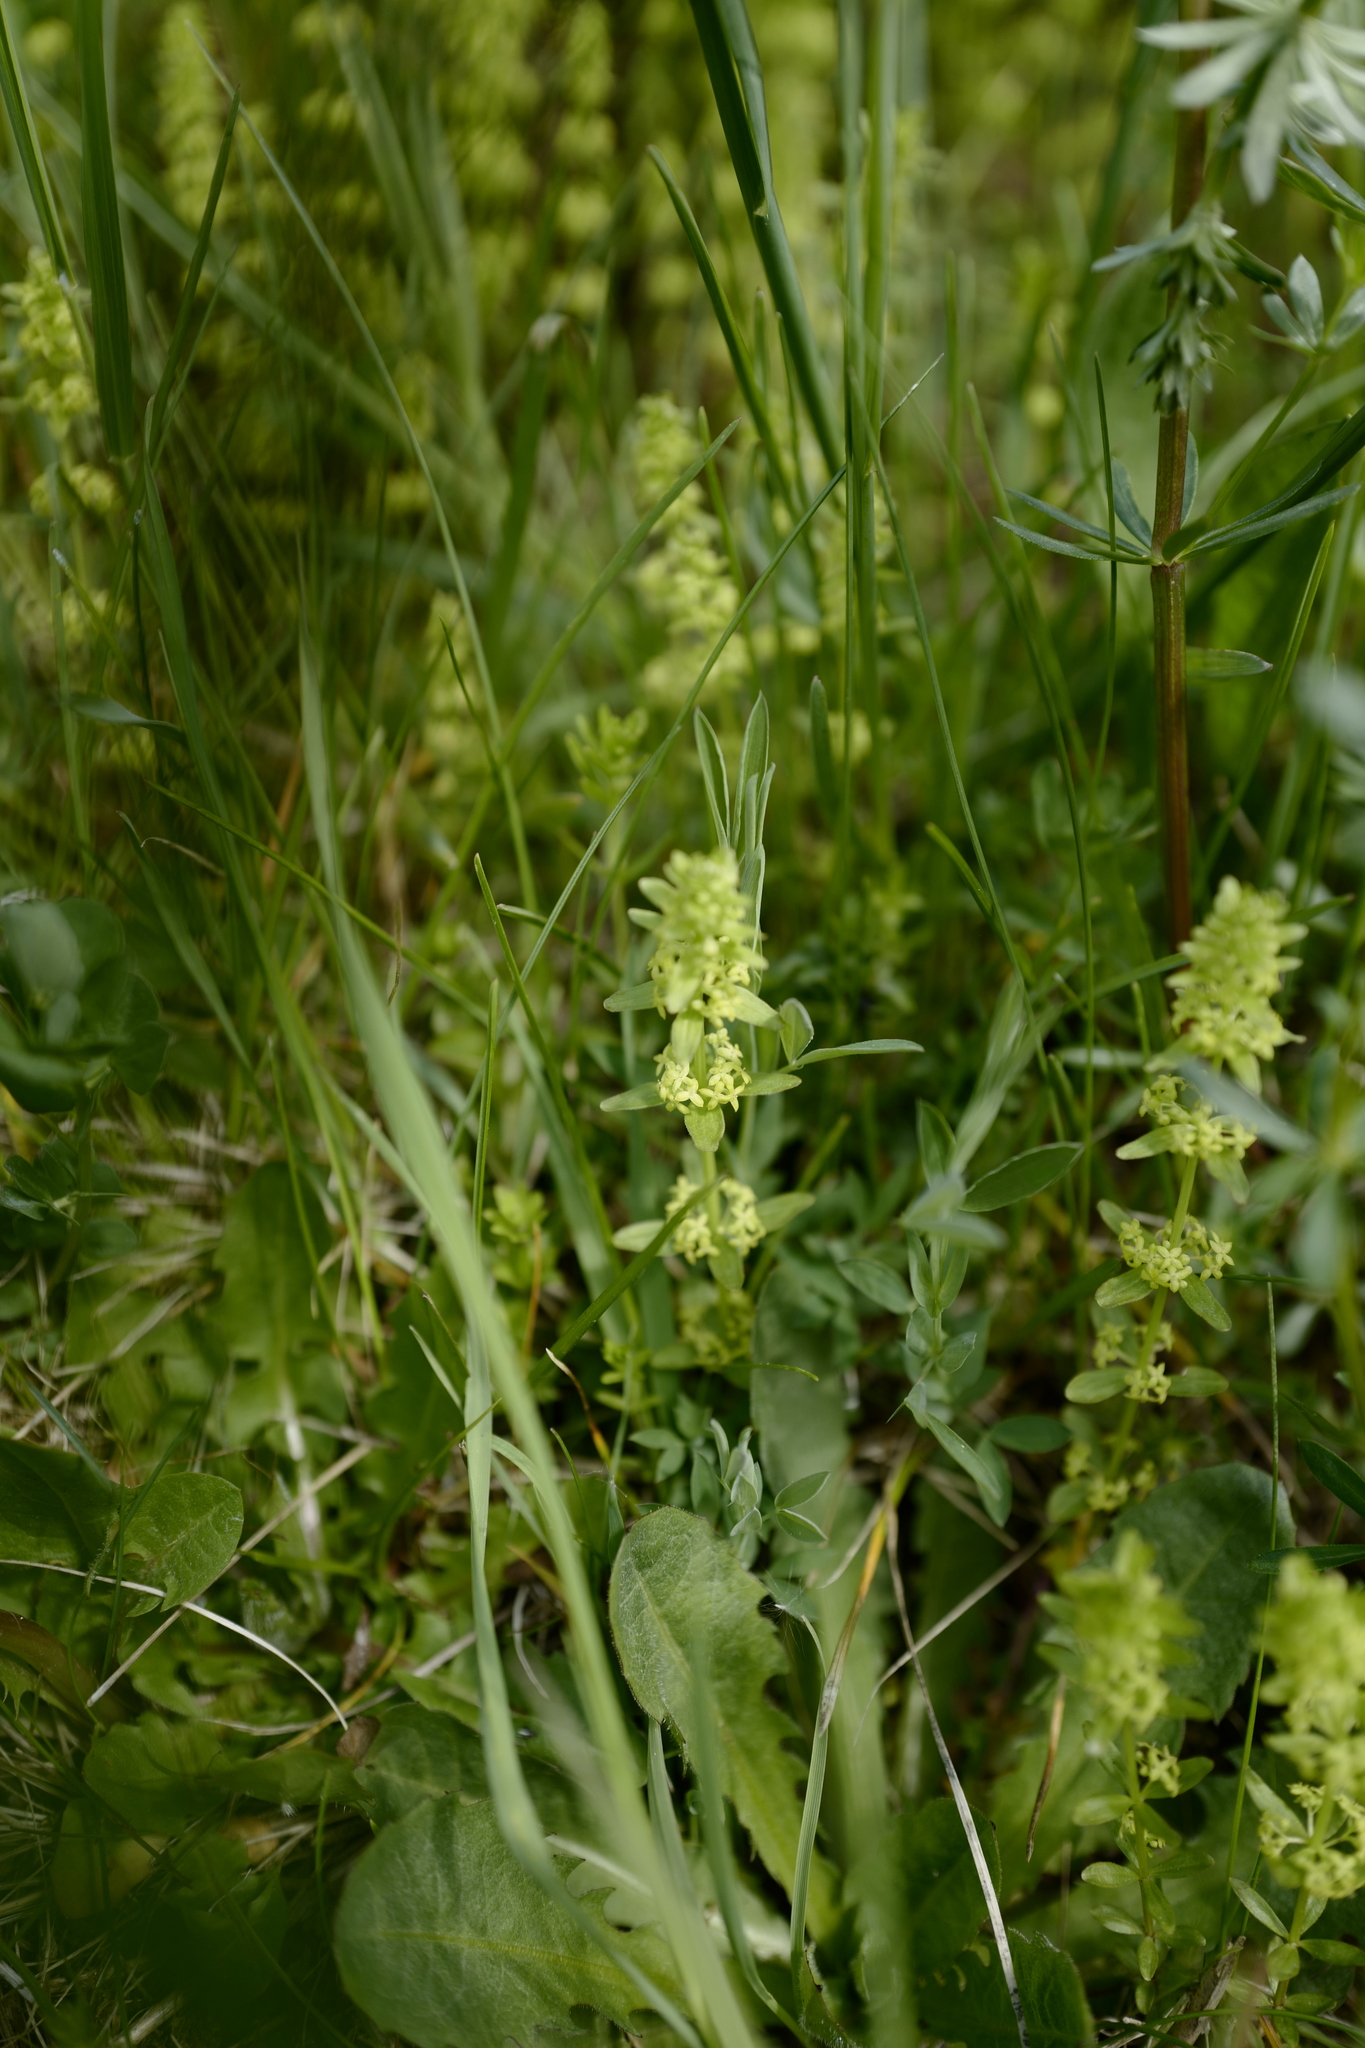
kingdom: Plantae
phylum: Tracheophyta
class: Magnoliopsida
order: Gentianales
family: Rubiaceae
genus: Cruciata
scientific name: Cruciata glabra
